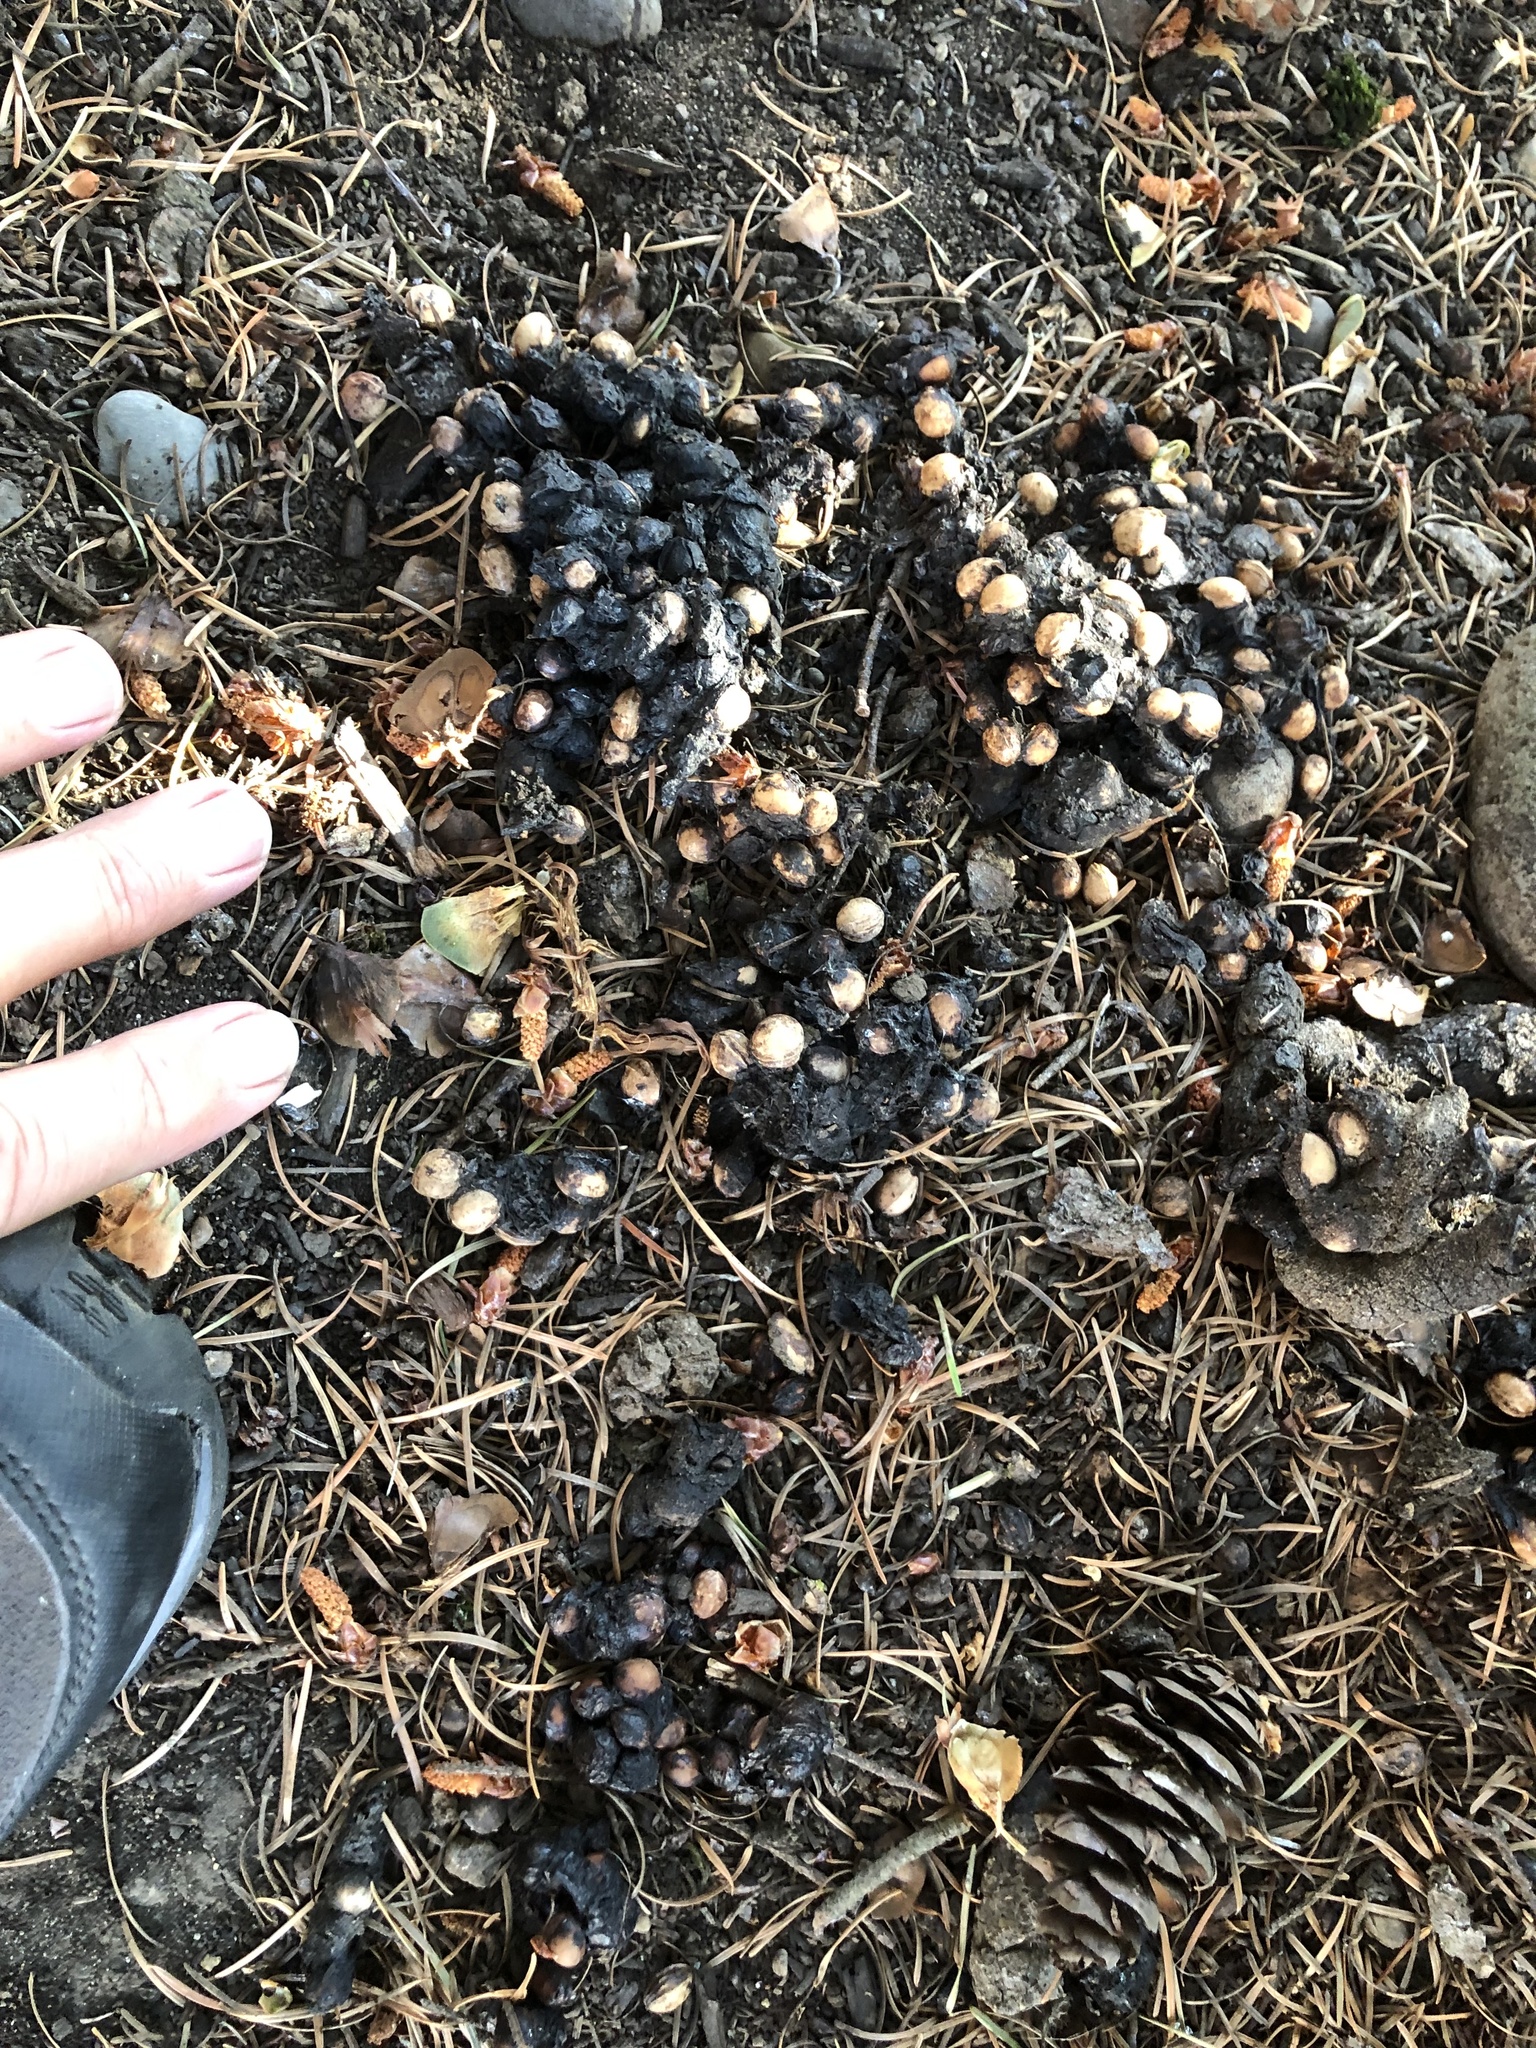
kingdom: Animalia
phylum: Chordata
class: Mammalia
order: Carnivora
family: Procyonidae
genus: Procyon
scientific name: Procyon lotor
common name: Raccoon
